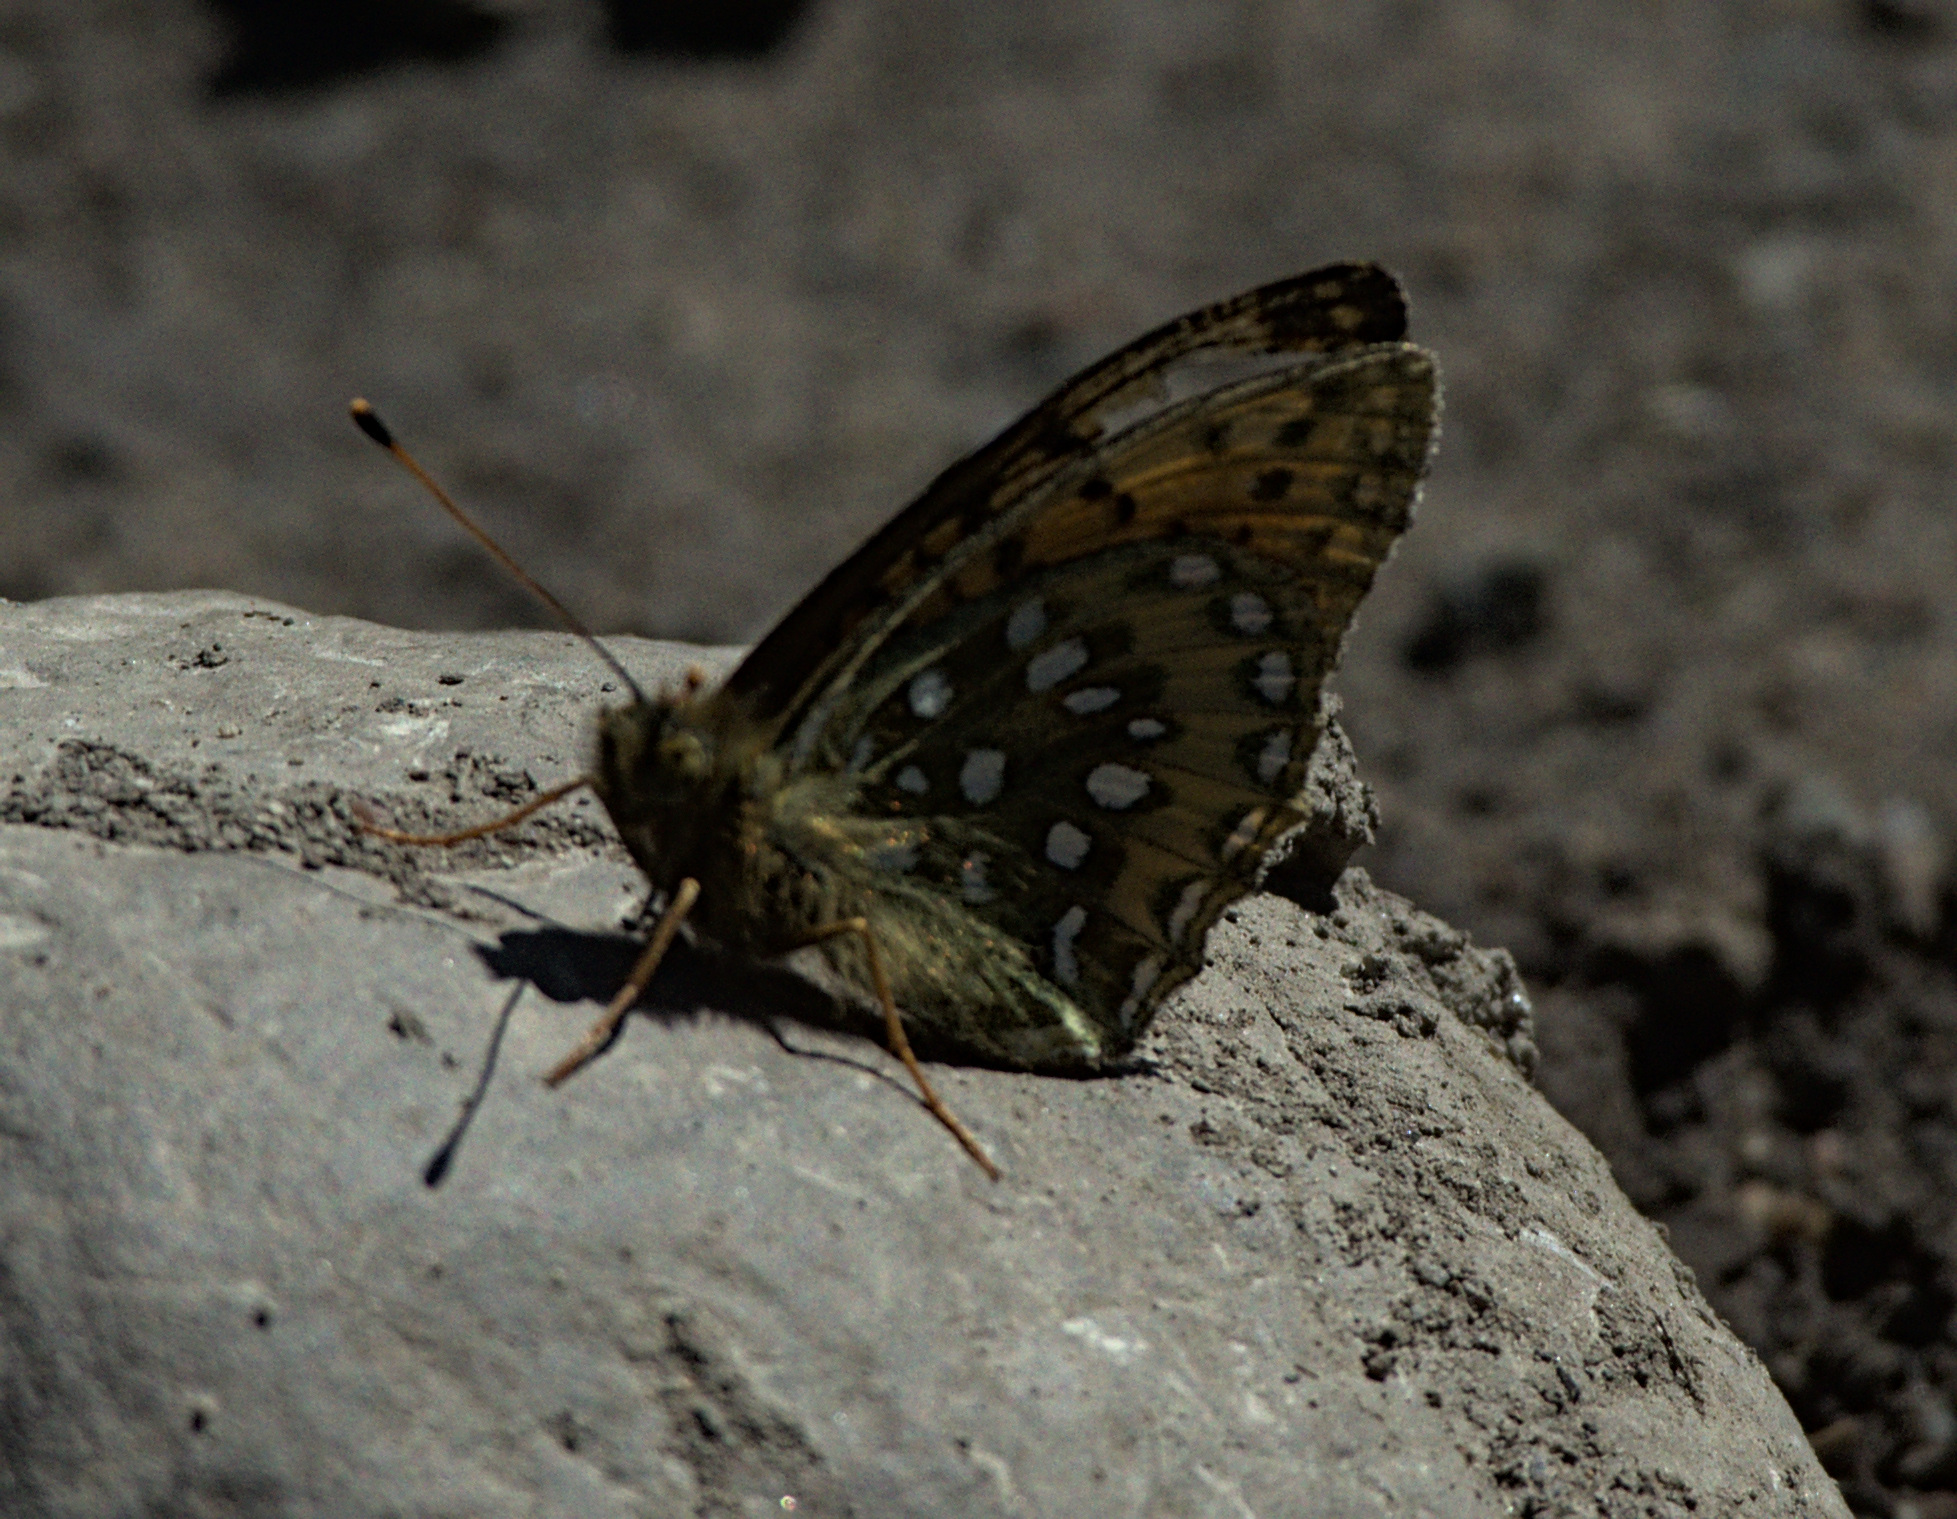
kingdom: Animalia
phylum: Arthropoda
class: Insecta
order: Lepidoptera
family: Nymphalidae
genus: Speyeria
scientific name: Speyeria aglaja
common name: Dark green fritillary
